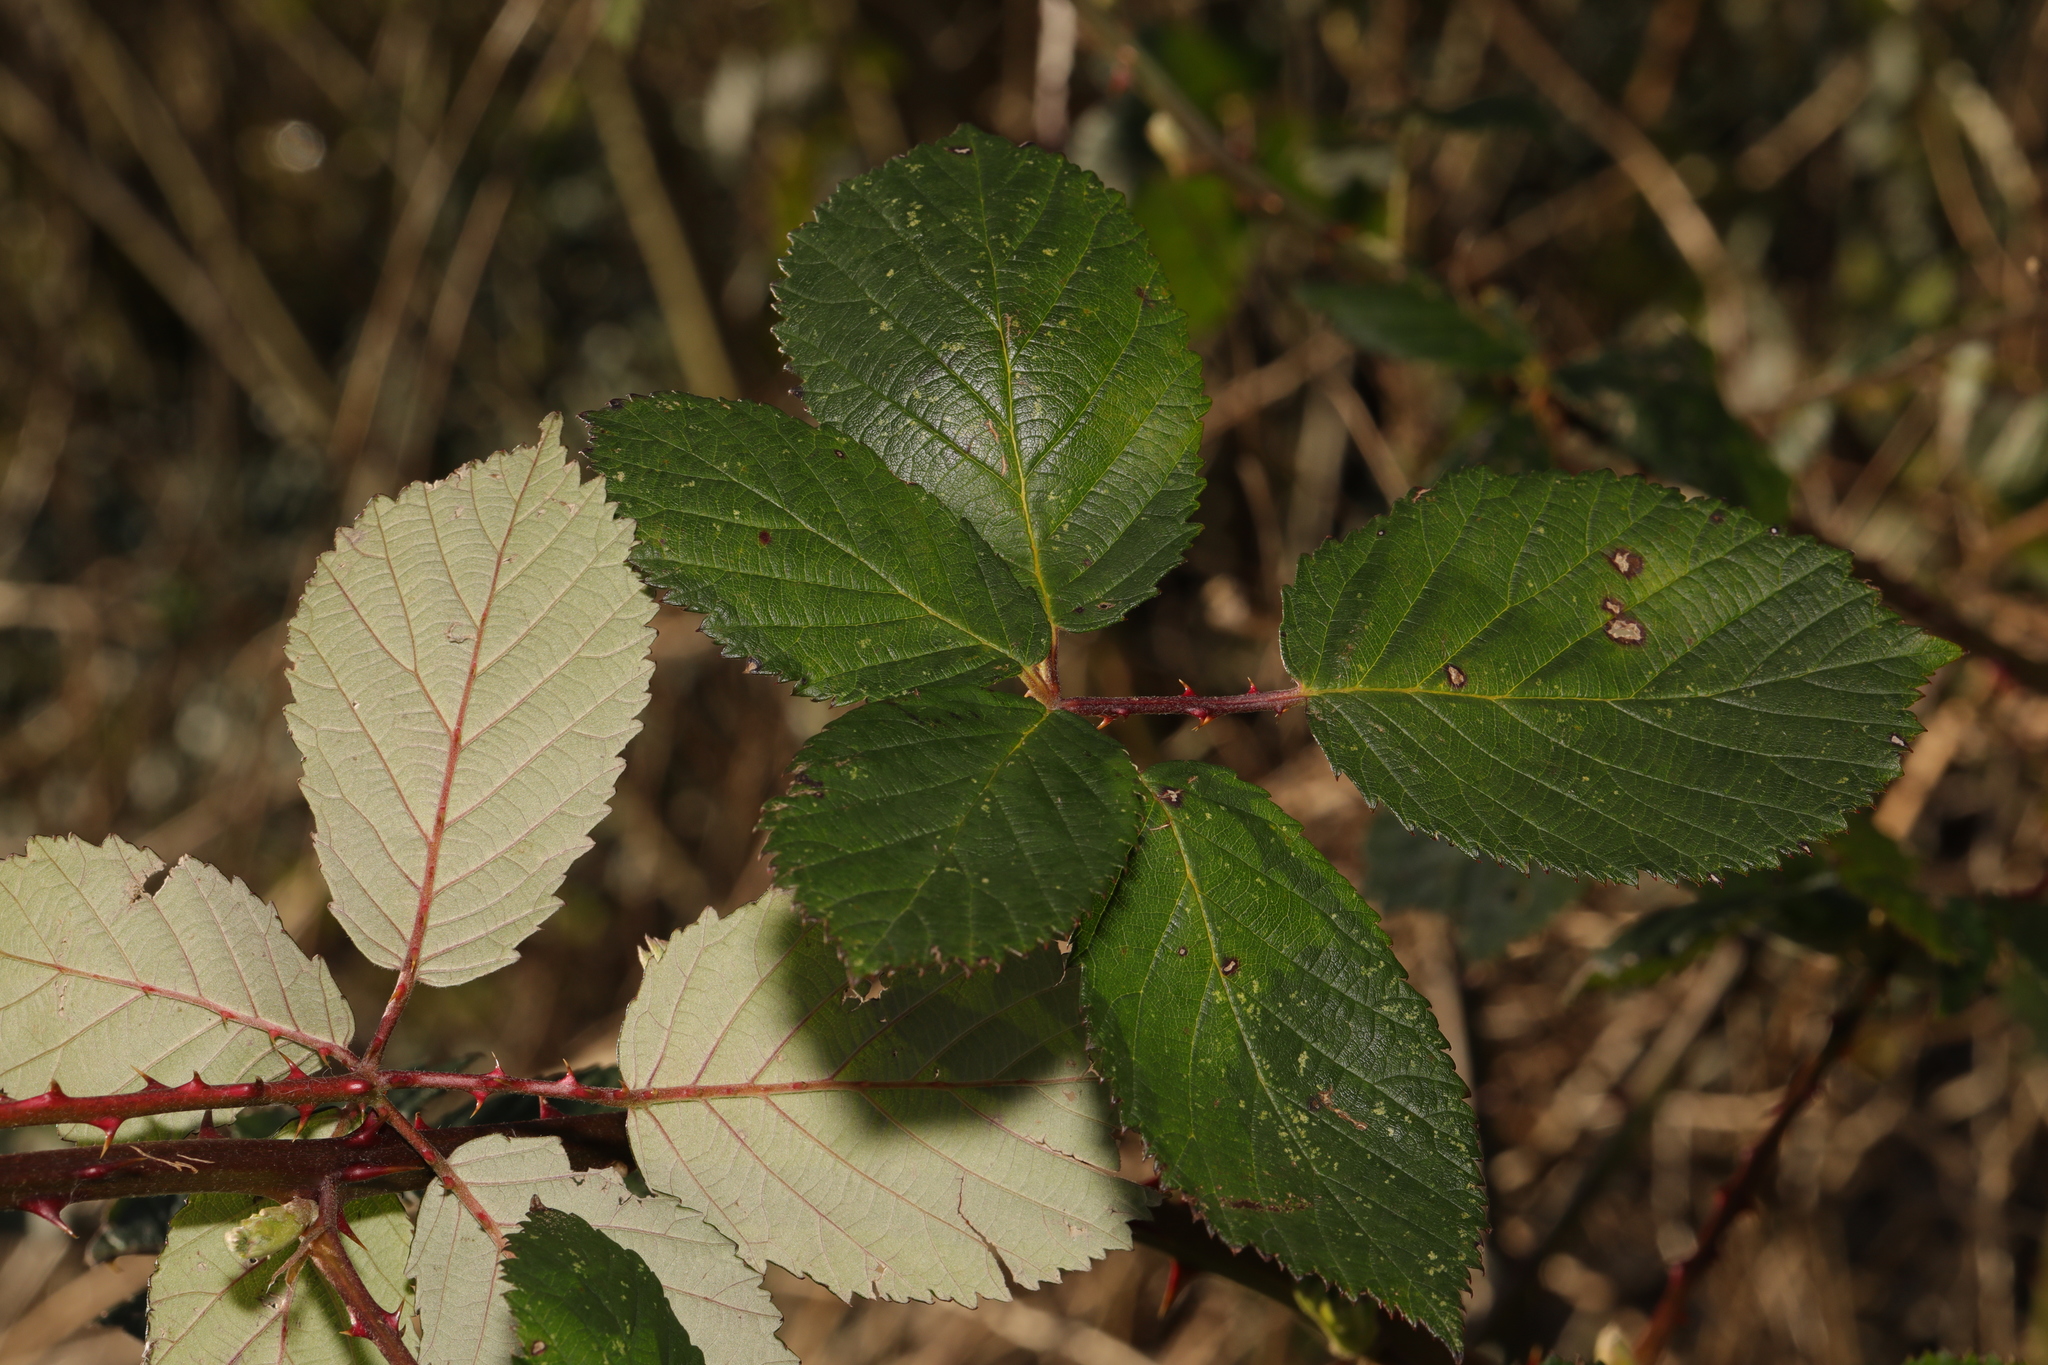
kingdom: Plantae
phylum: Tracheophyta
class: Magnoliopsida
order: Rosales
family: Rosaceae
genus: Rubus
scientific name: Rubus armeniacus
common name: Himalayan blackberry
